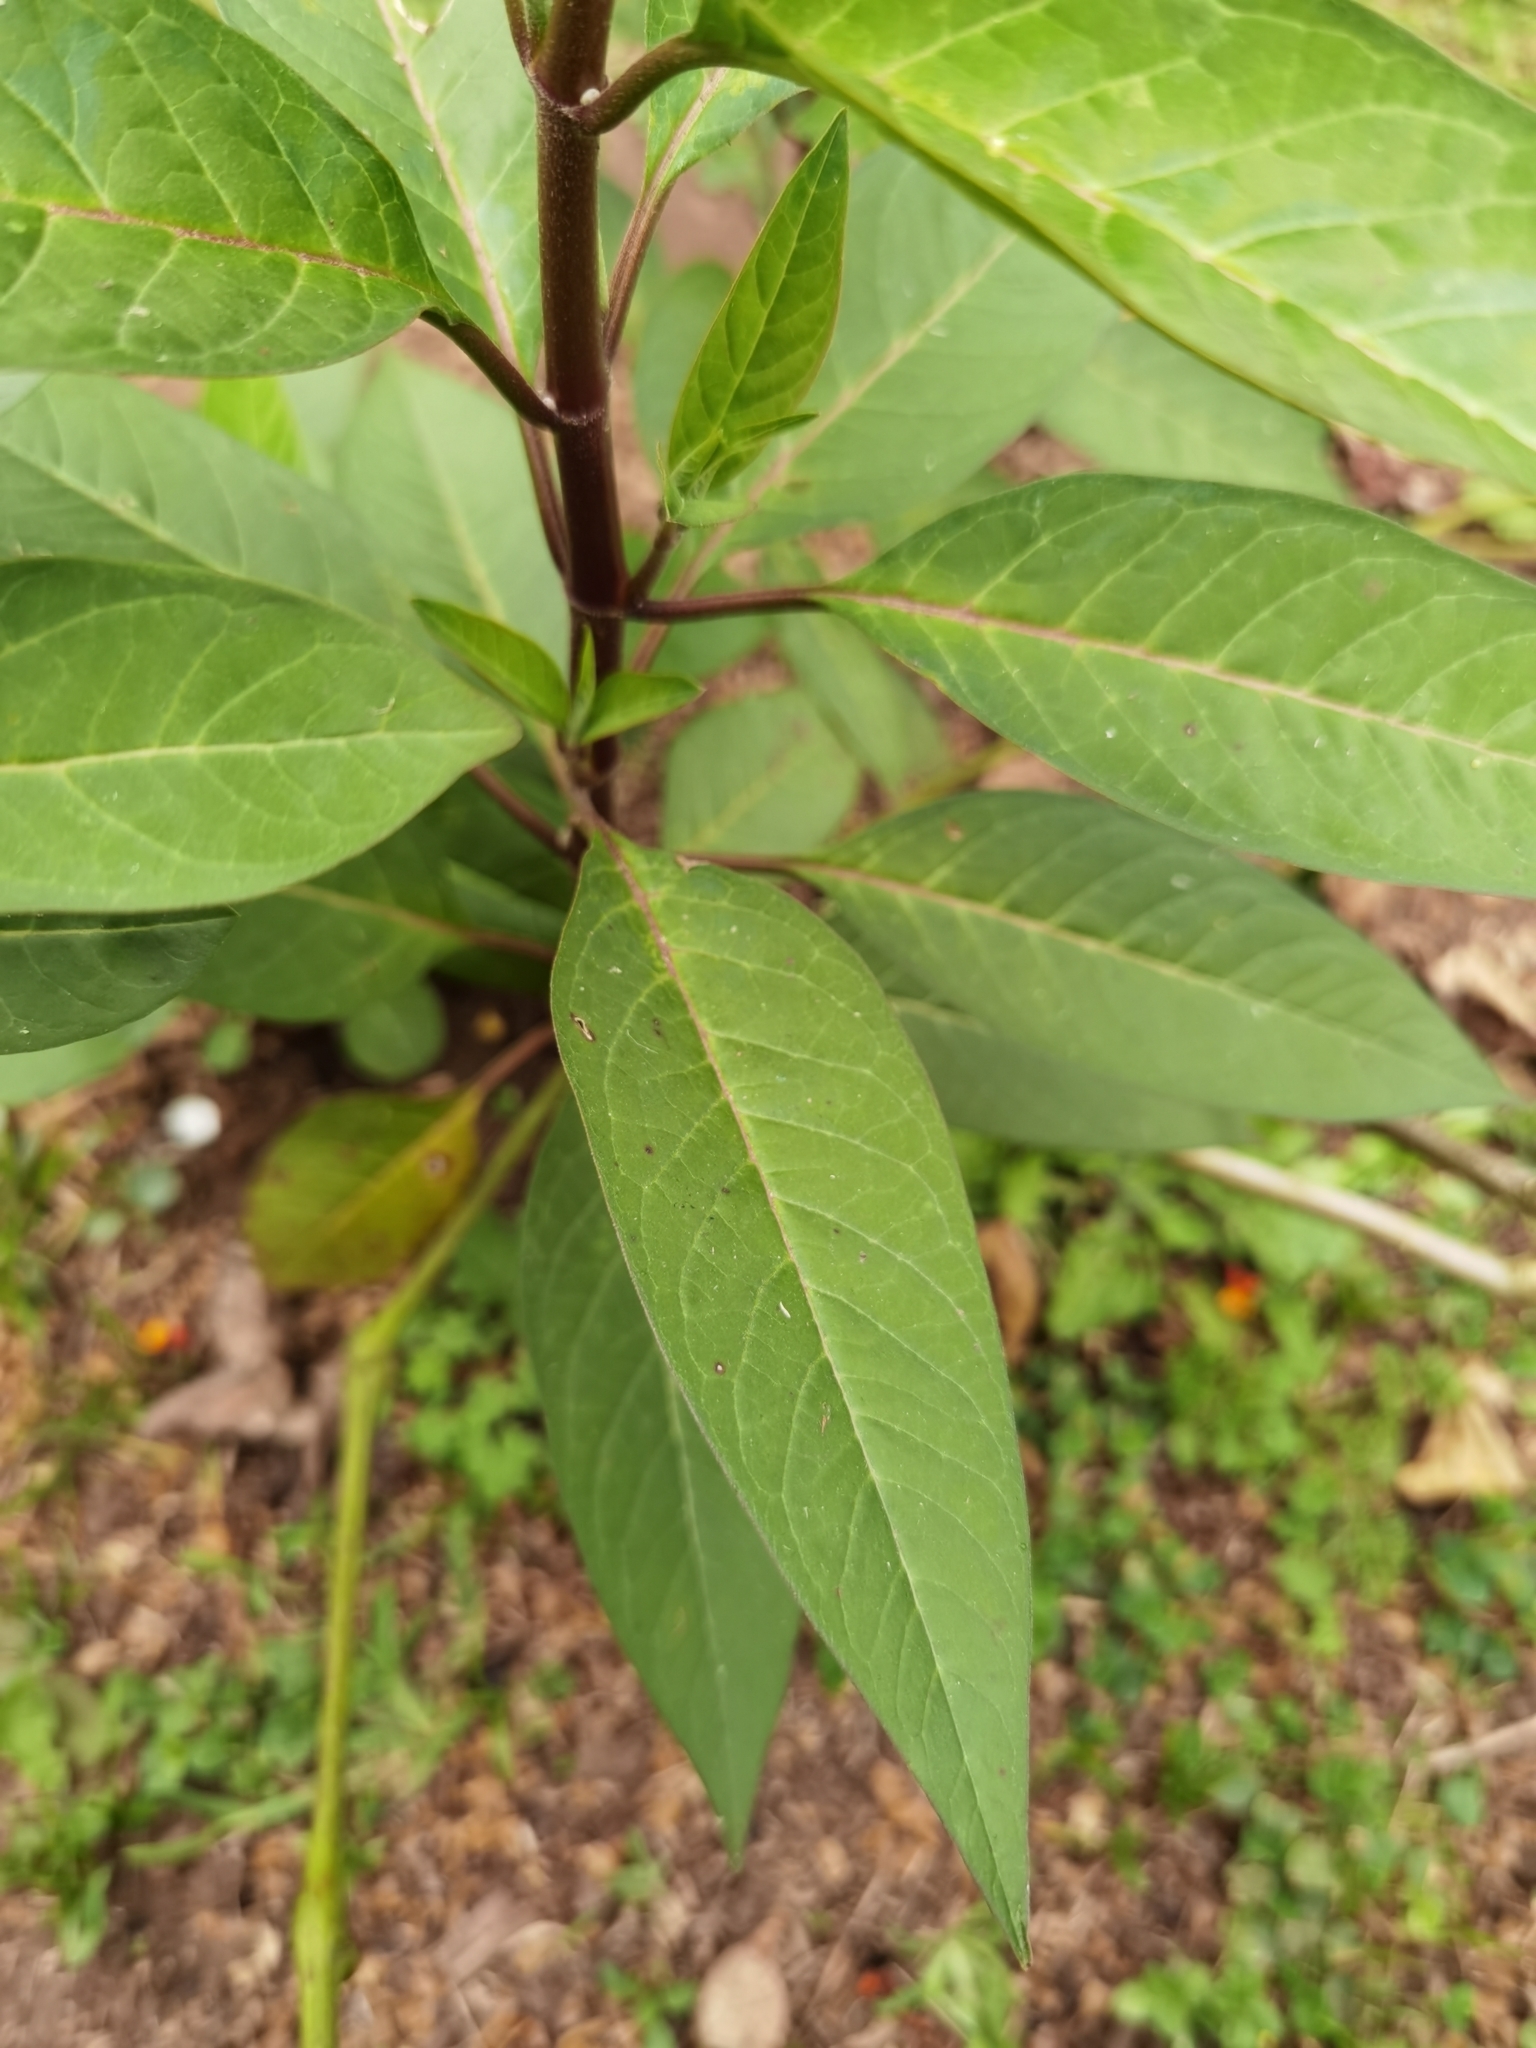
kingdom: Plantae
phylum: Tracheophyta
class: Magnoliopsida
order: Gentianales
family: Apocynaceae
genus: Asclepias
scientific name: Asclepias curassavica
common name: Bloodflower
